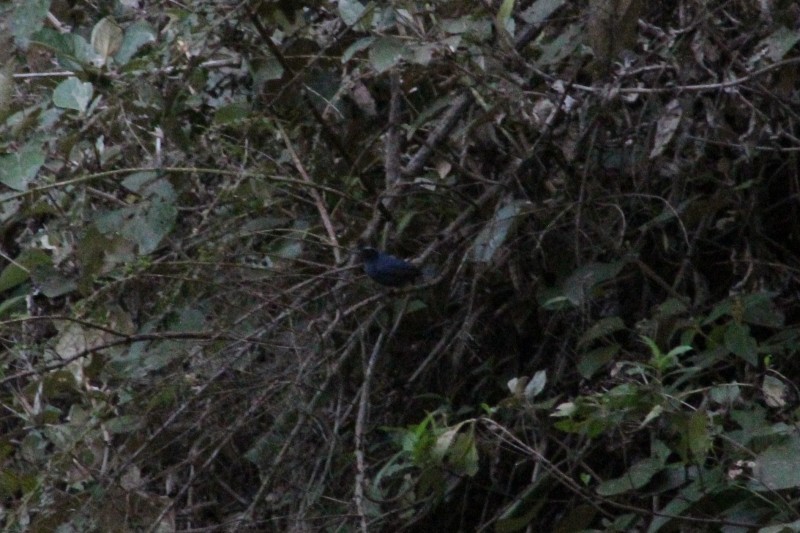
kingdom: Animalia
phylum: Chordata
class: Aves
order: Passeriformes
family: Thraupidae
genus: Diglossa
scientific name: Diglossa cyanea
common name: Masked flowerpiercer
